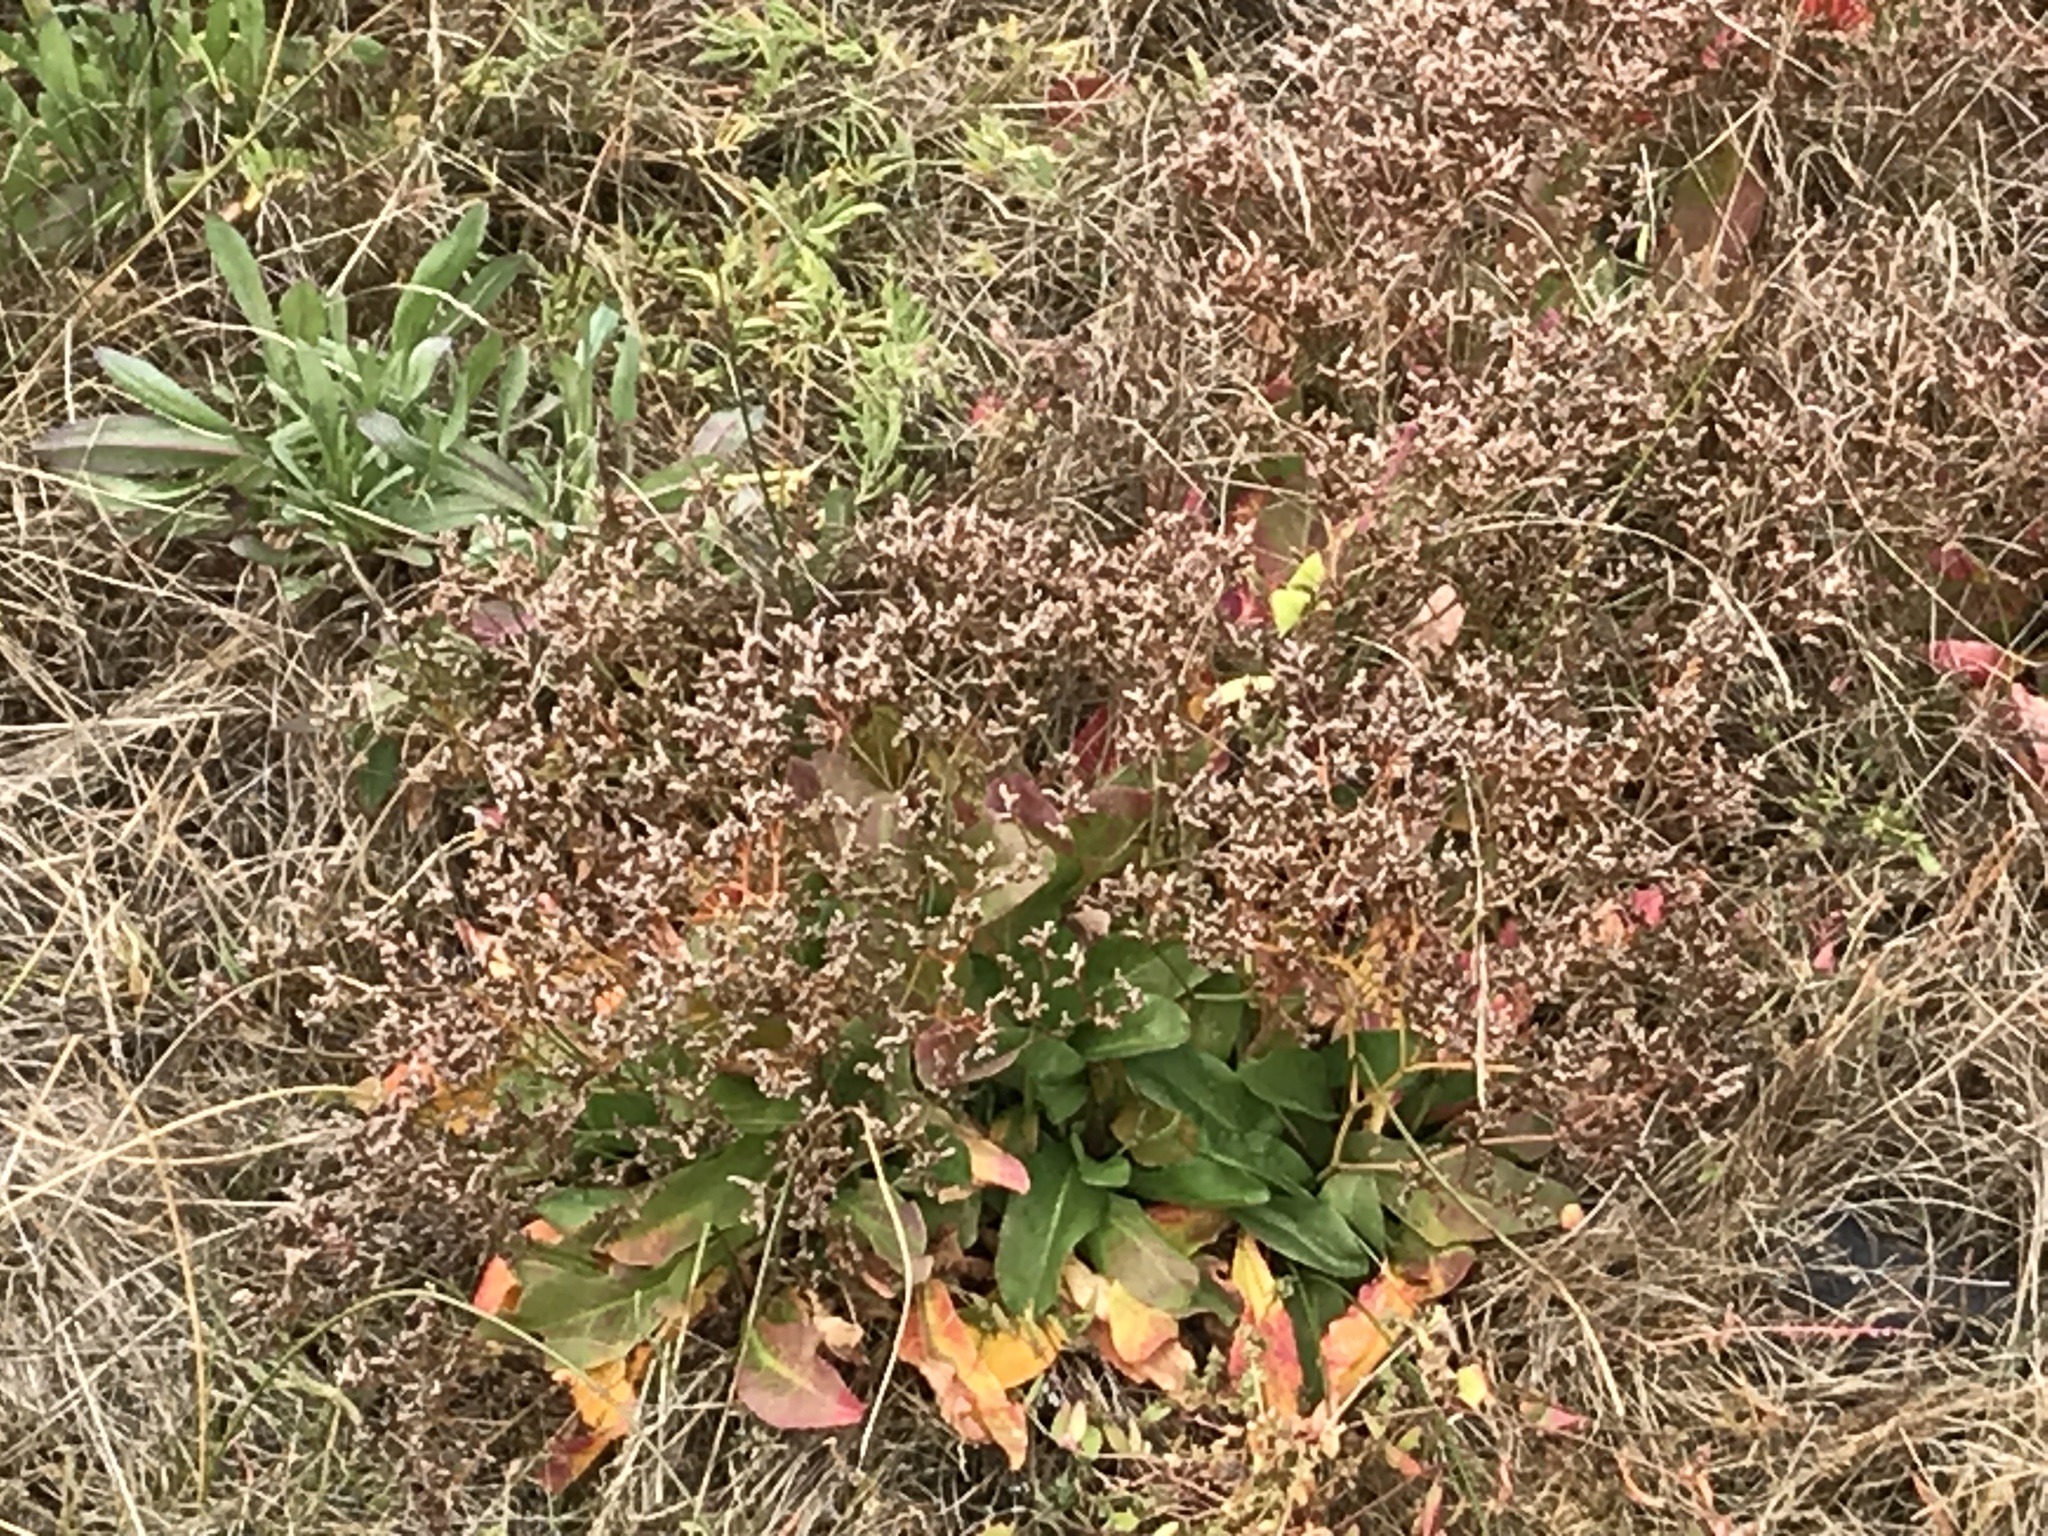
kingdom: Plantae
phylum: Tracheophyta
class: Magnoliopsida
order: Caryophyllales
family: Plumbaginaceae
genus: Limonium
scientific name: Limonium californicum
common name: Marsh-rosemary
